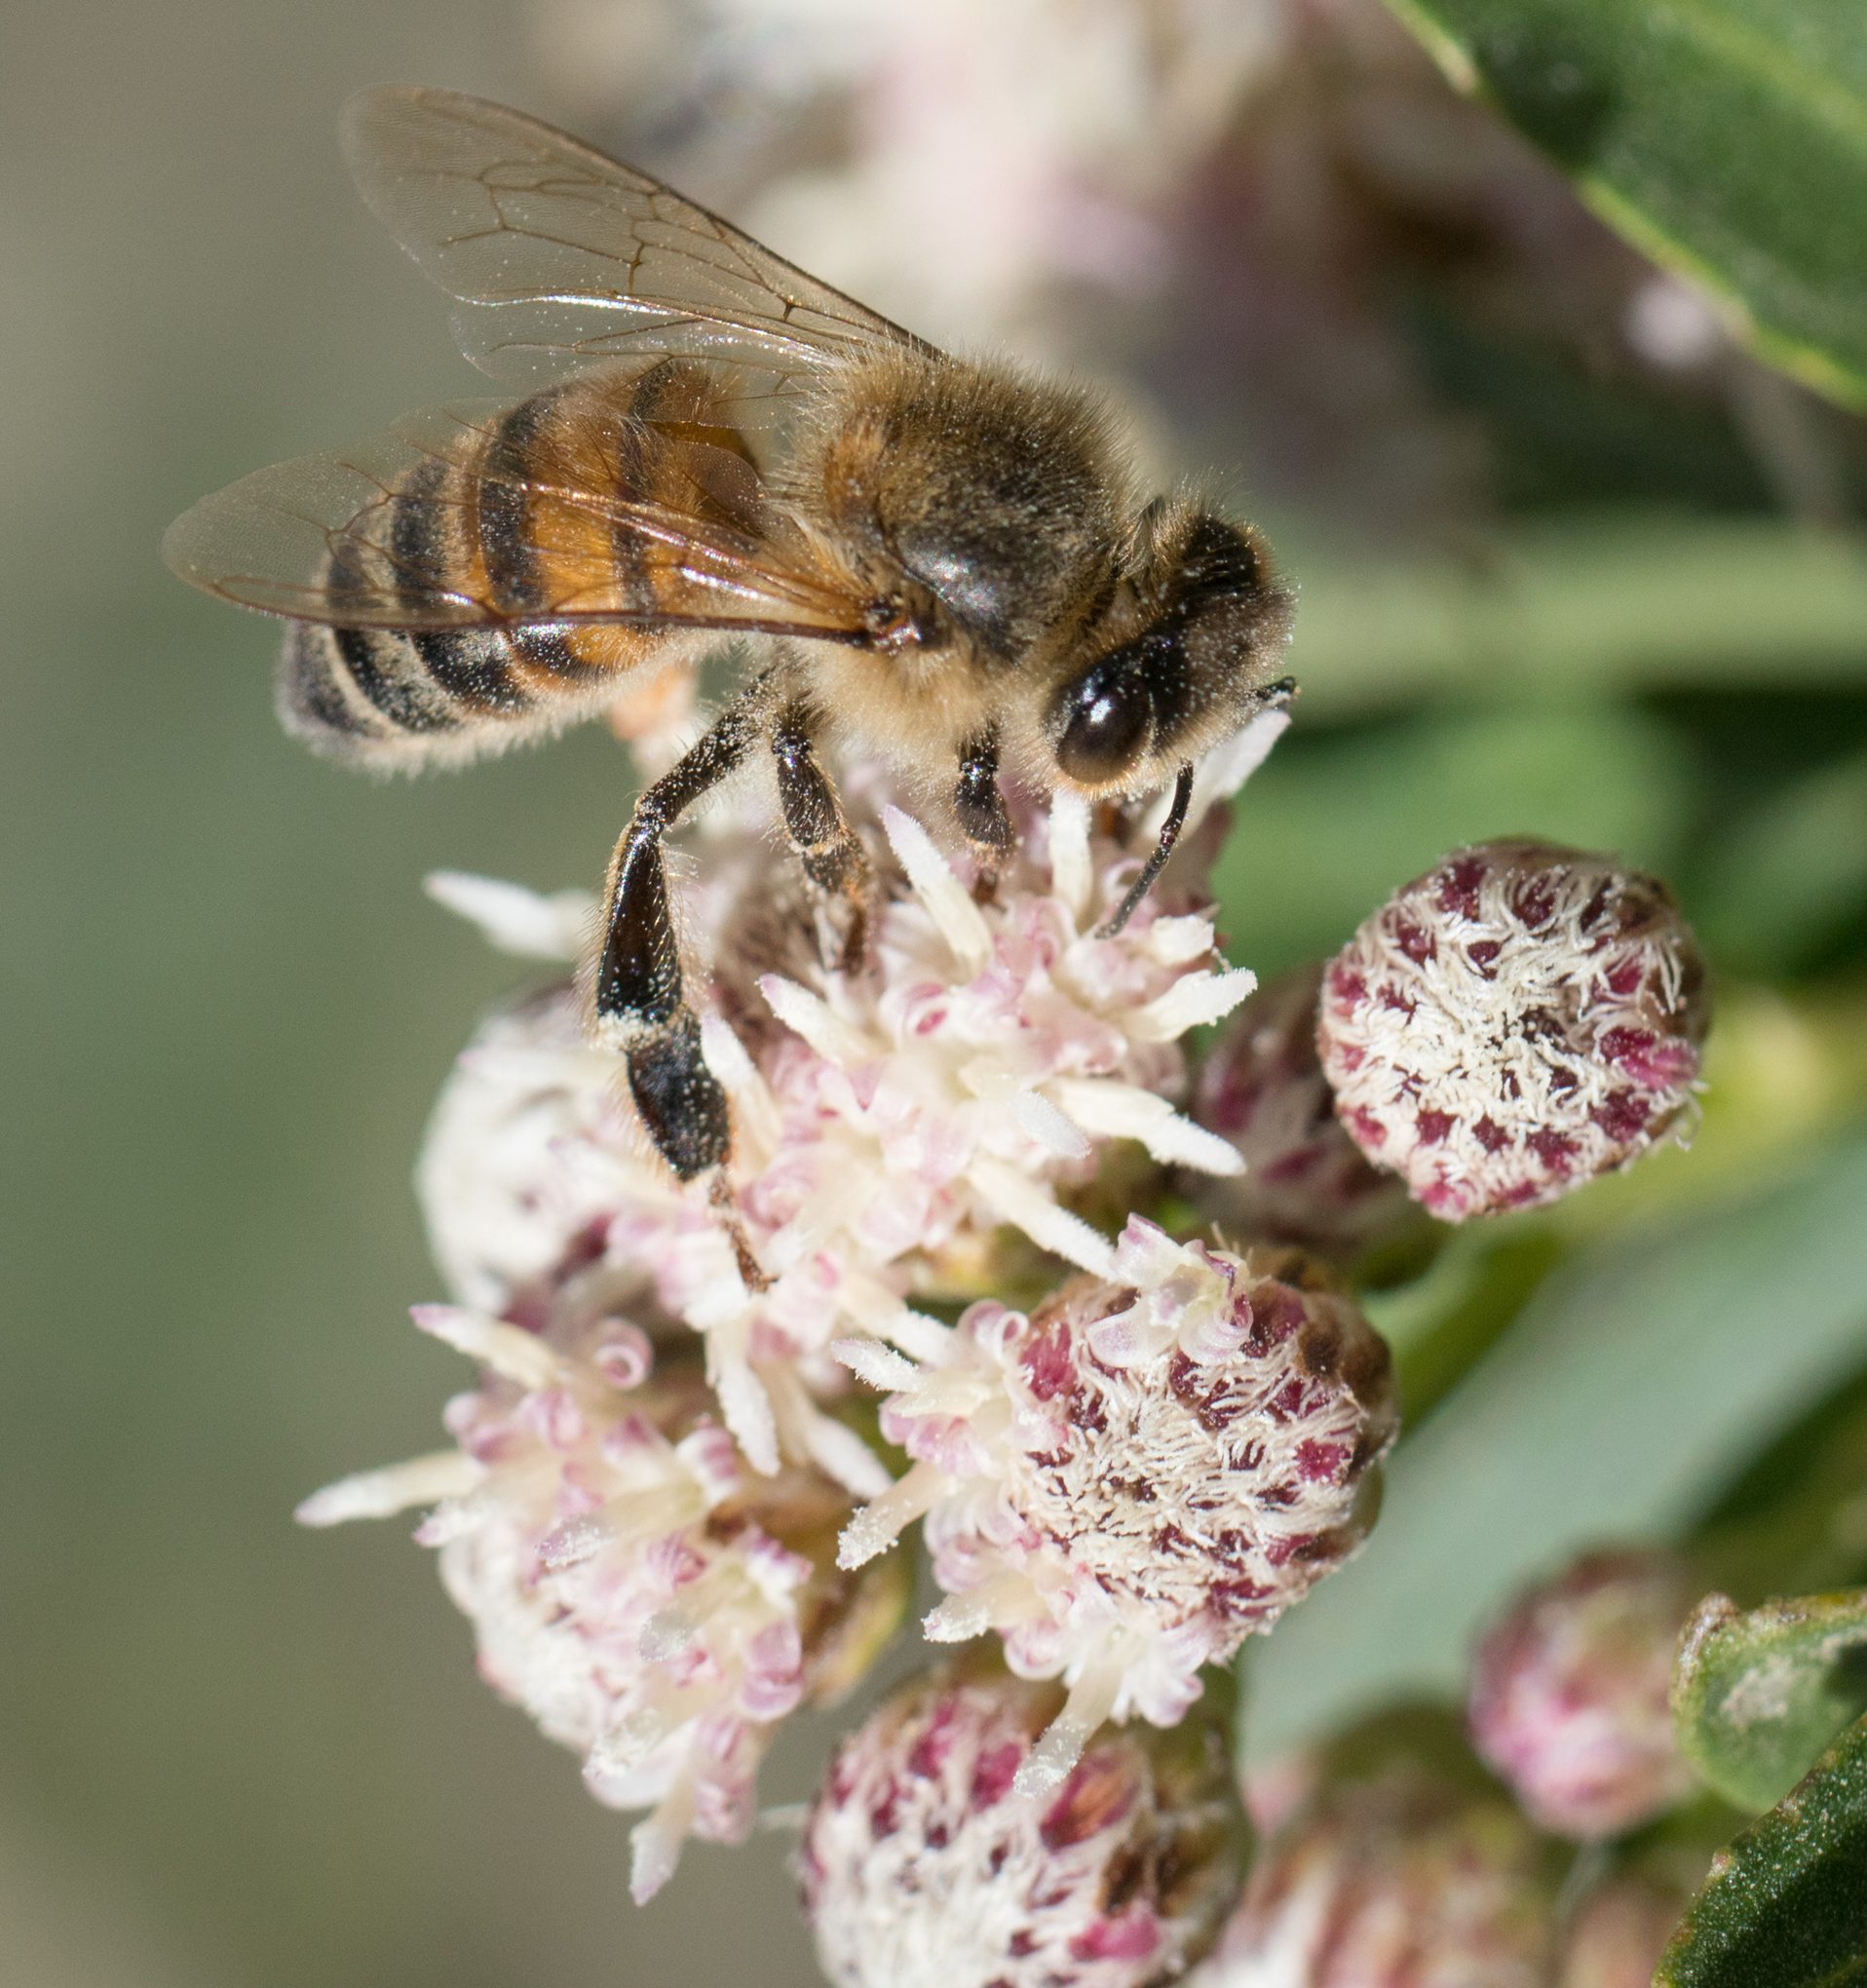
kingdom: Animalia
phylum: Arthropoda
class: Insecta
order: Hymenoptera
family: Apidae
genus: Apis
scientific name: Apis mellifera
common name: Honey bee
